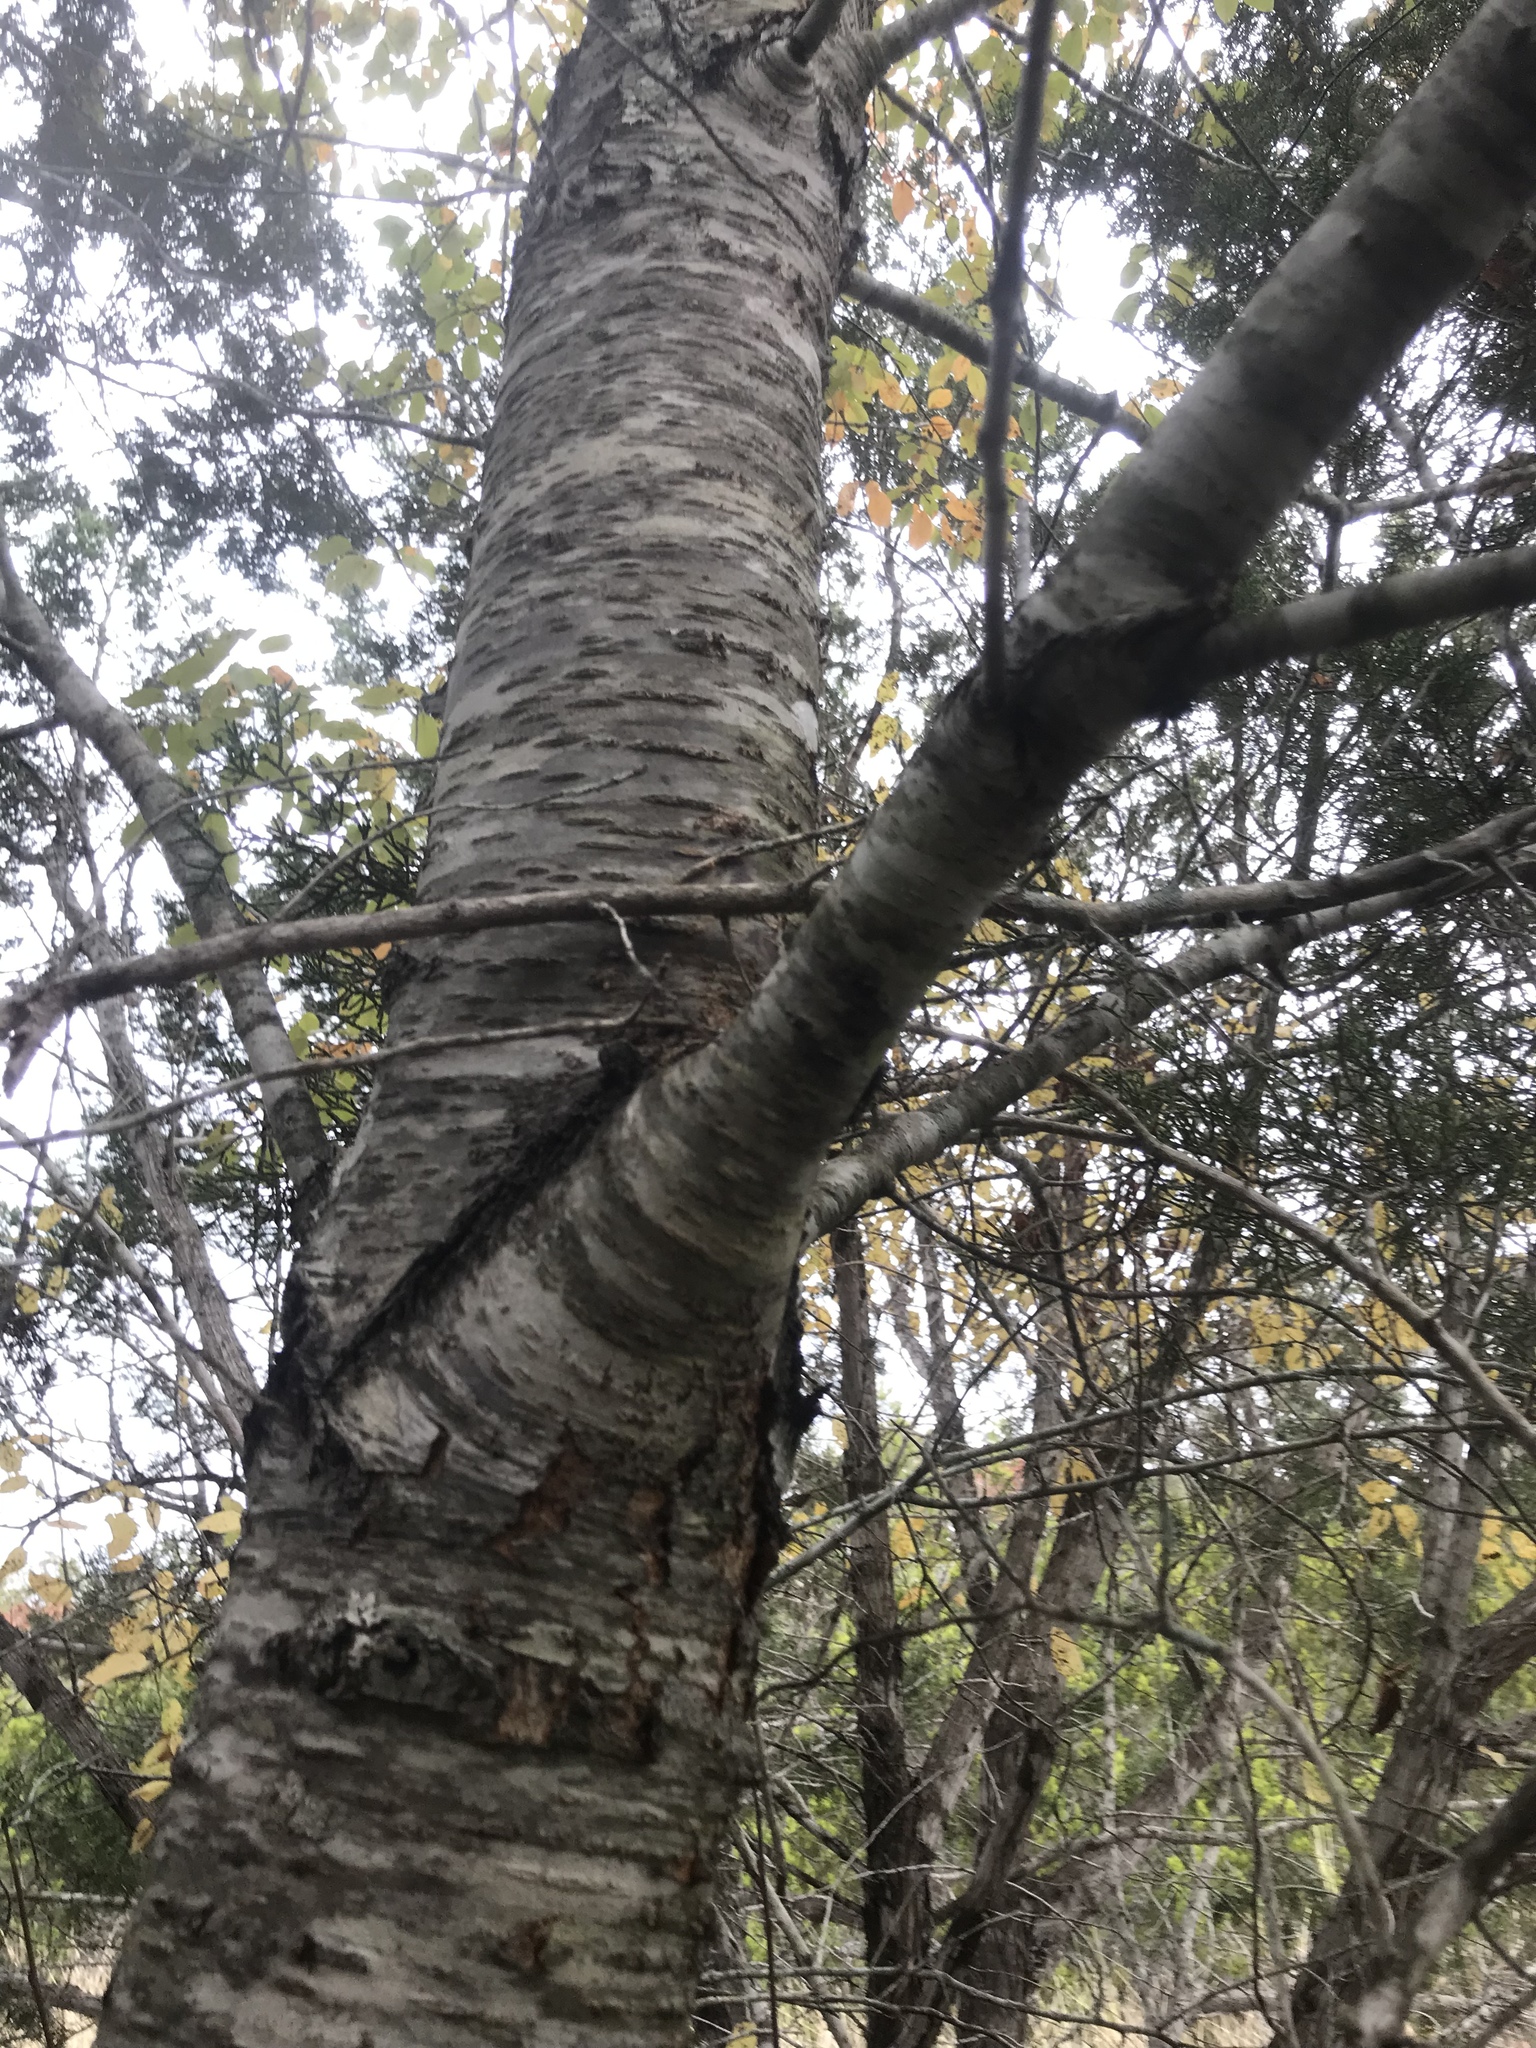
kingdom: Plantae
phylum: Tracheophyta
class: Magnoliopsida
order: Rosales
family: Rosaceae
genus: Prunus
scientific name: Prunus serotina
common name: Black cherry
